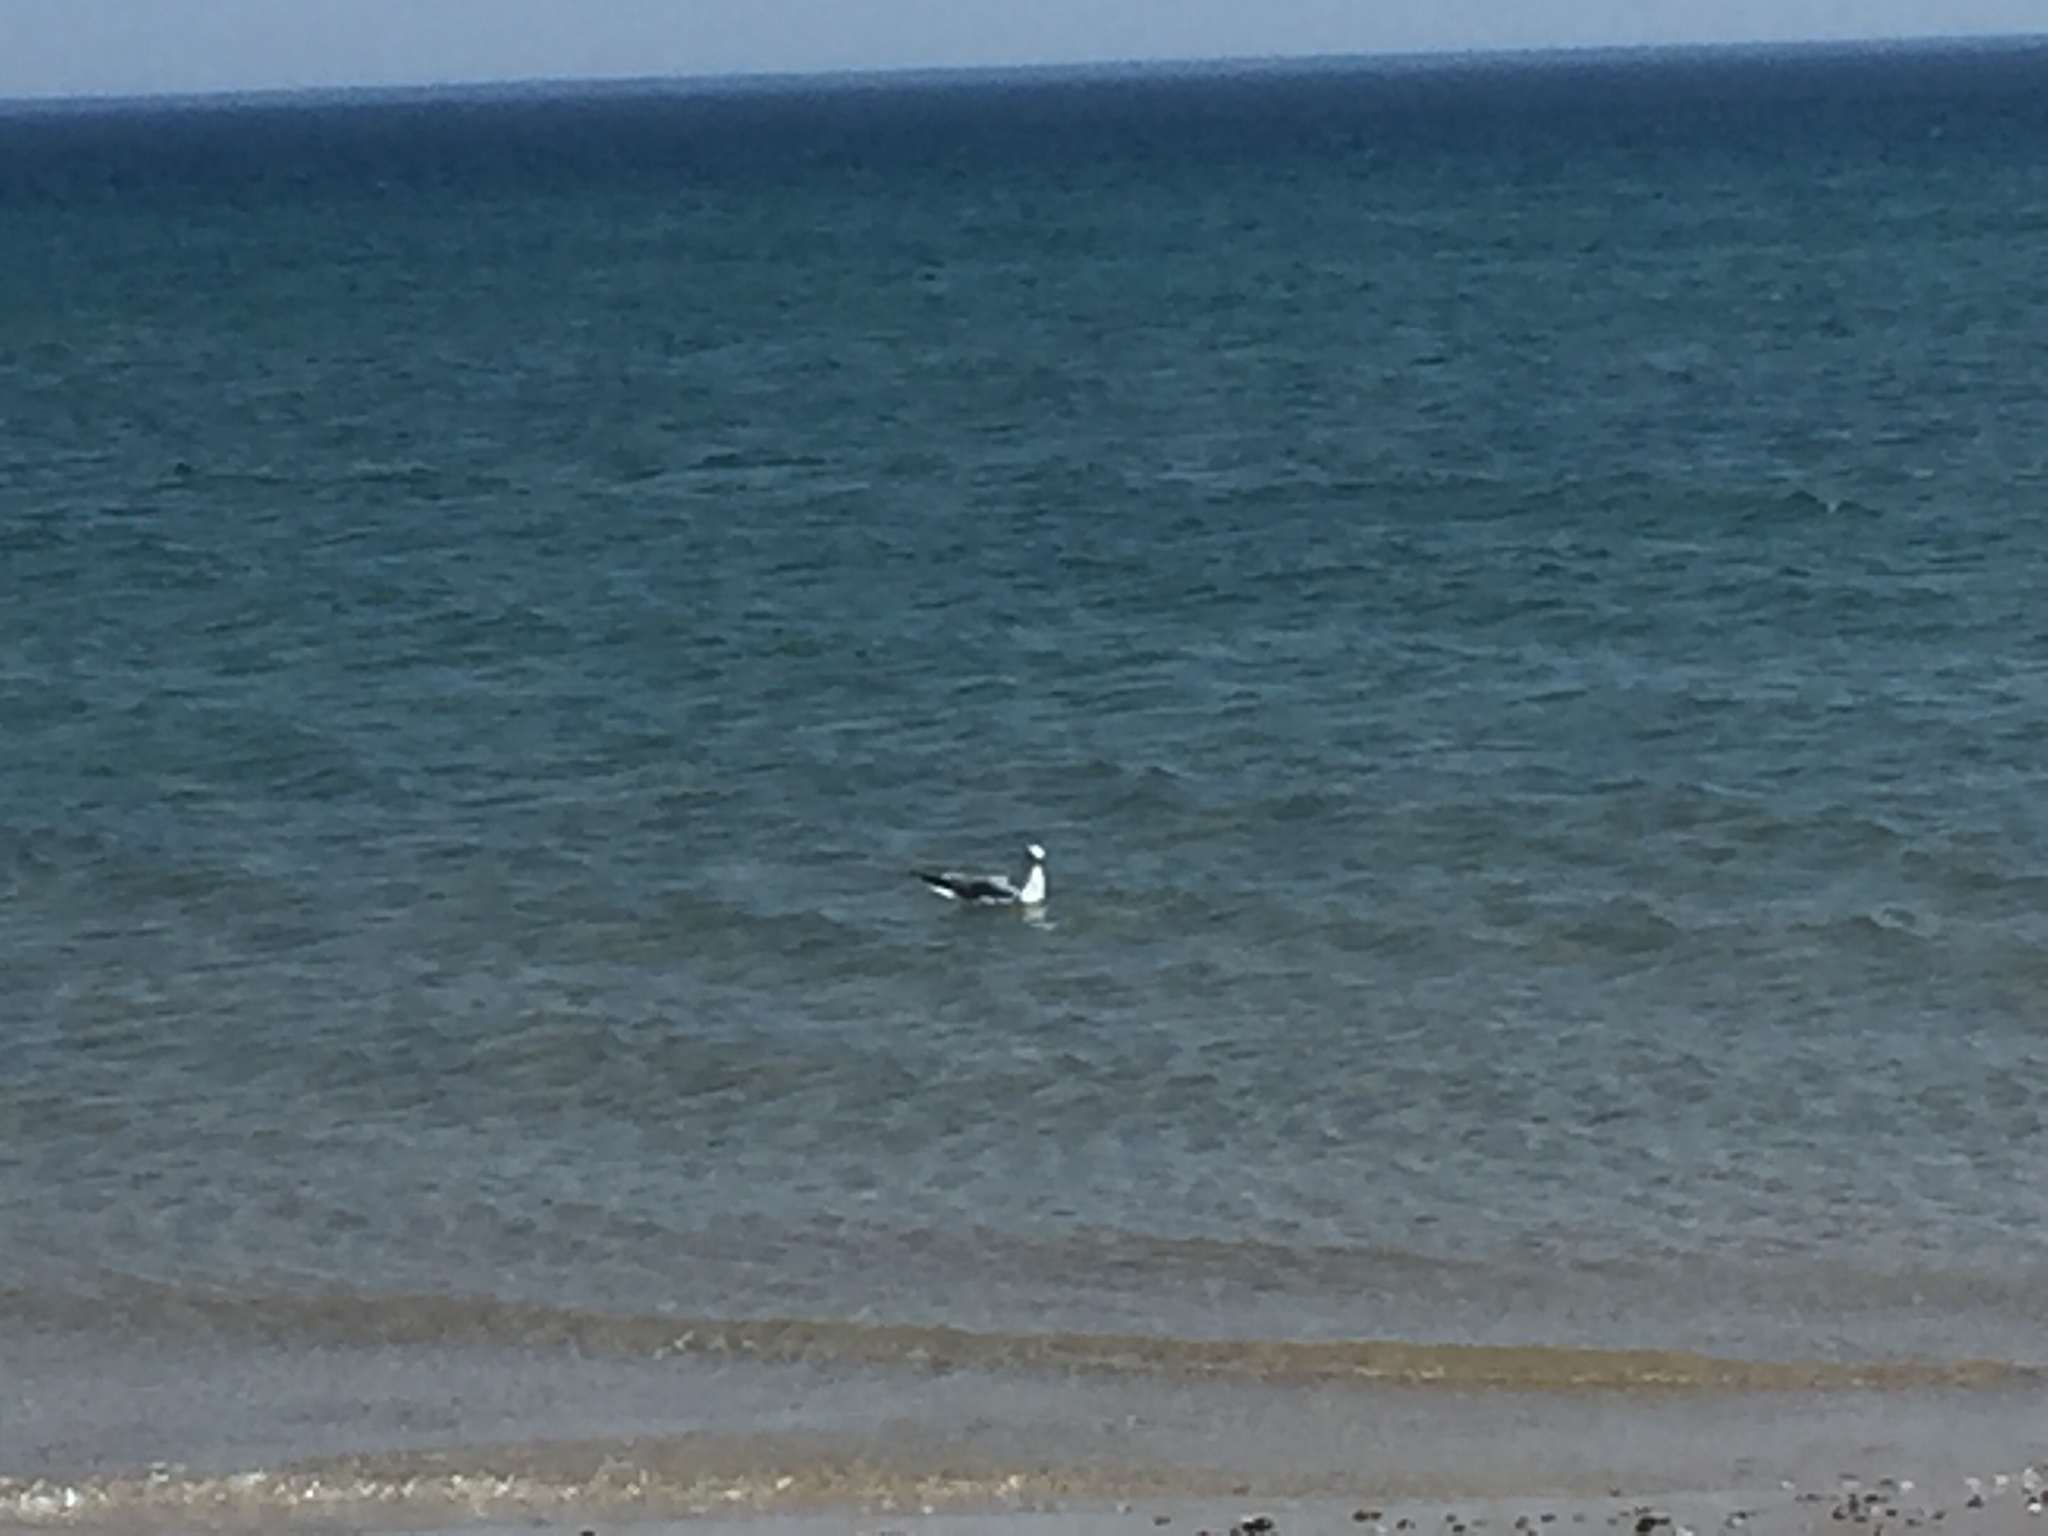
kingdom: Animalia
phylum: Chordata
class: Aves
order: Charadriiformes
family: Laridae
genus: Larus
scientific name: Larus argentatus
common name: Herring gull
